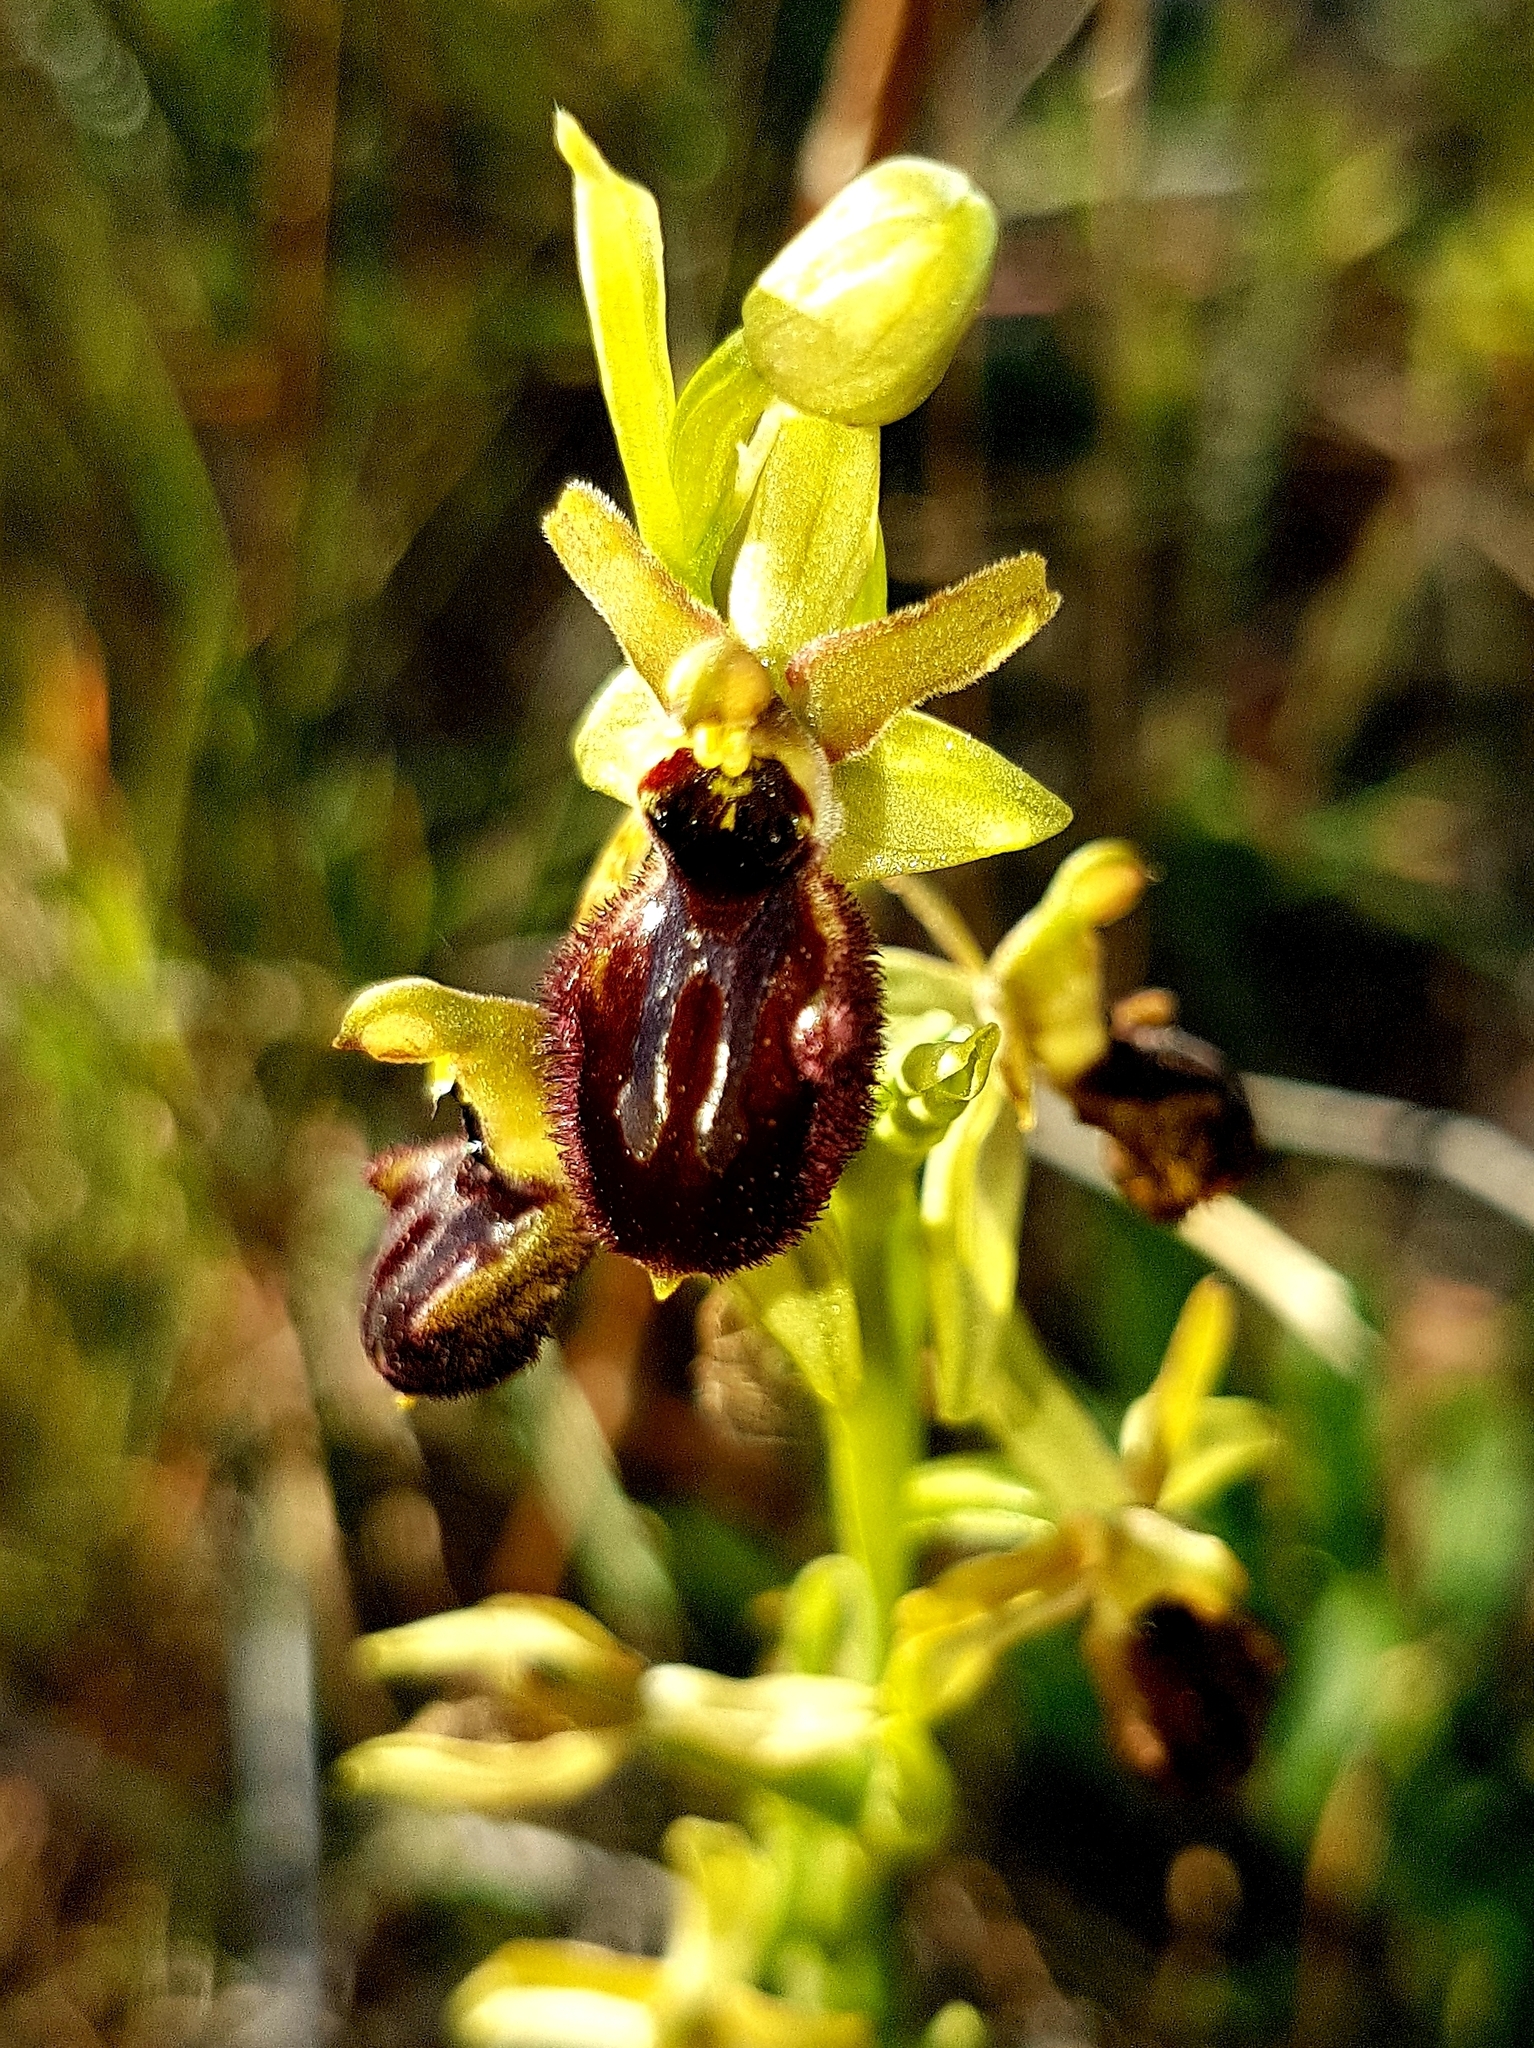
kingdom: Plantae
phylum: Tracheophyta
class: Liliopsida
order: Asparagales
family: Orchidaceae
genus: Ophrys
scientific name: Ophrys sphegodes
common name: Early spider-orchid
